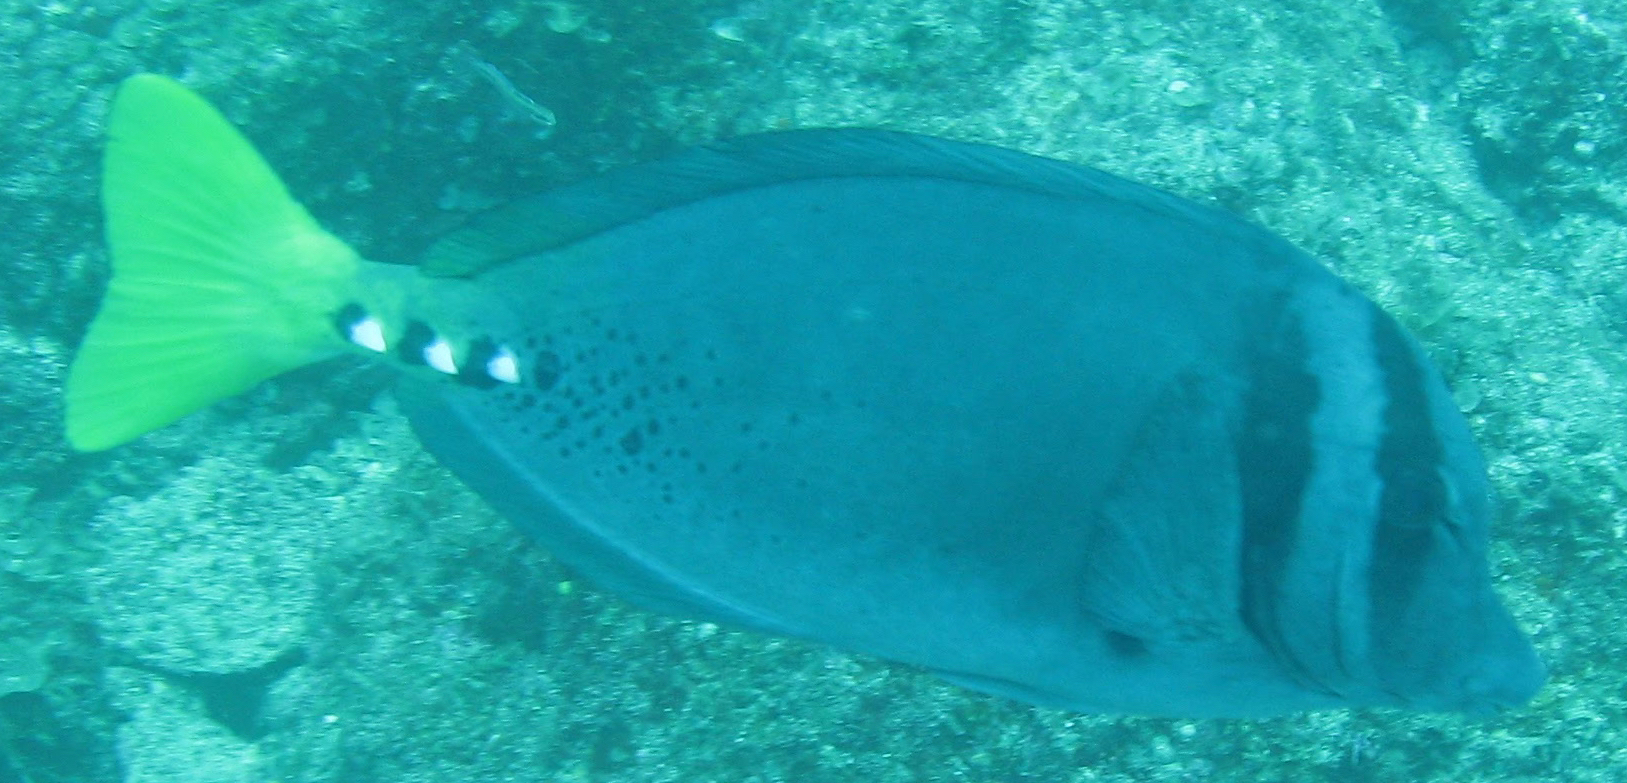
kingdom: Animalia
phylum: Chordata
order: Perciformes
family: Acanthuridae
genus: Prionurus
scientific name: Prionurus laticlavius
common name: Razor surgeonfish
